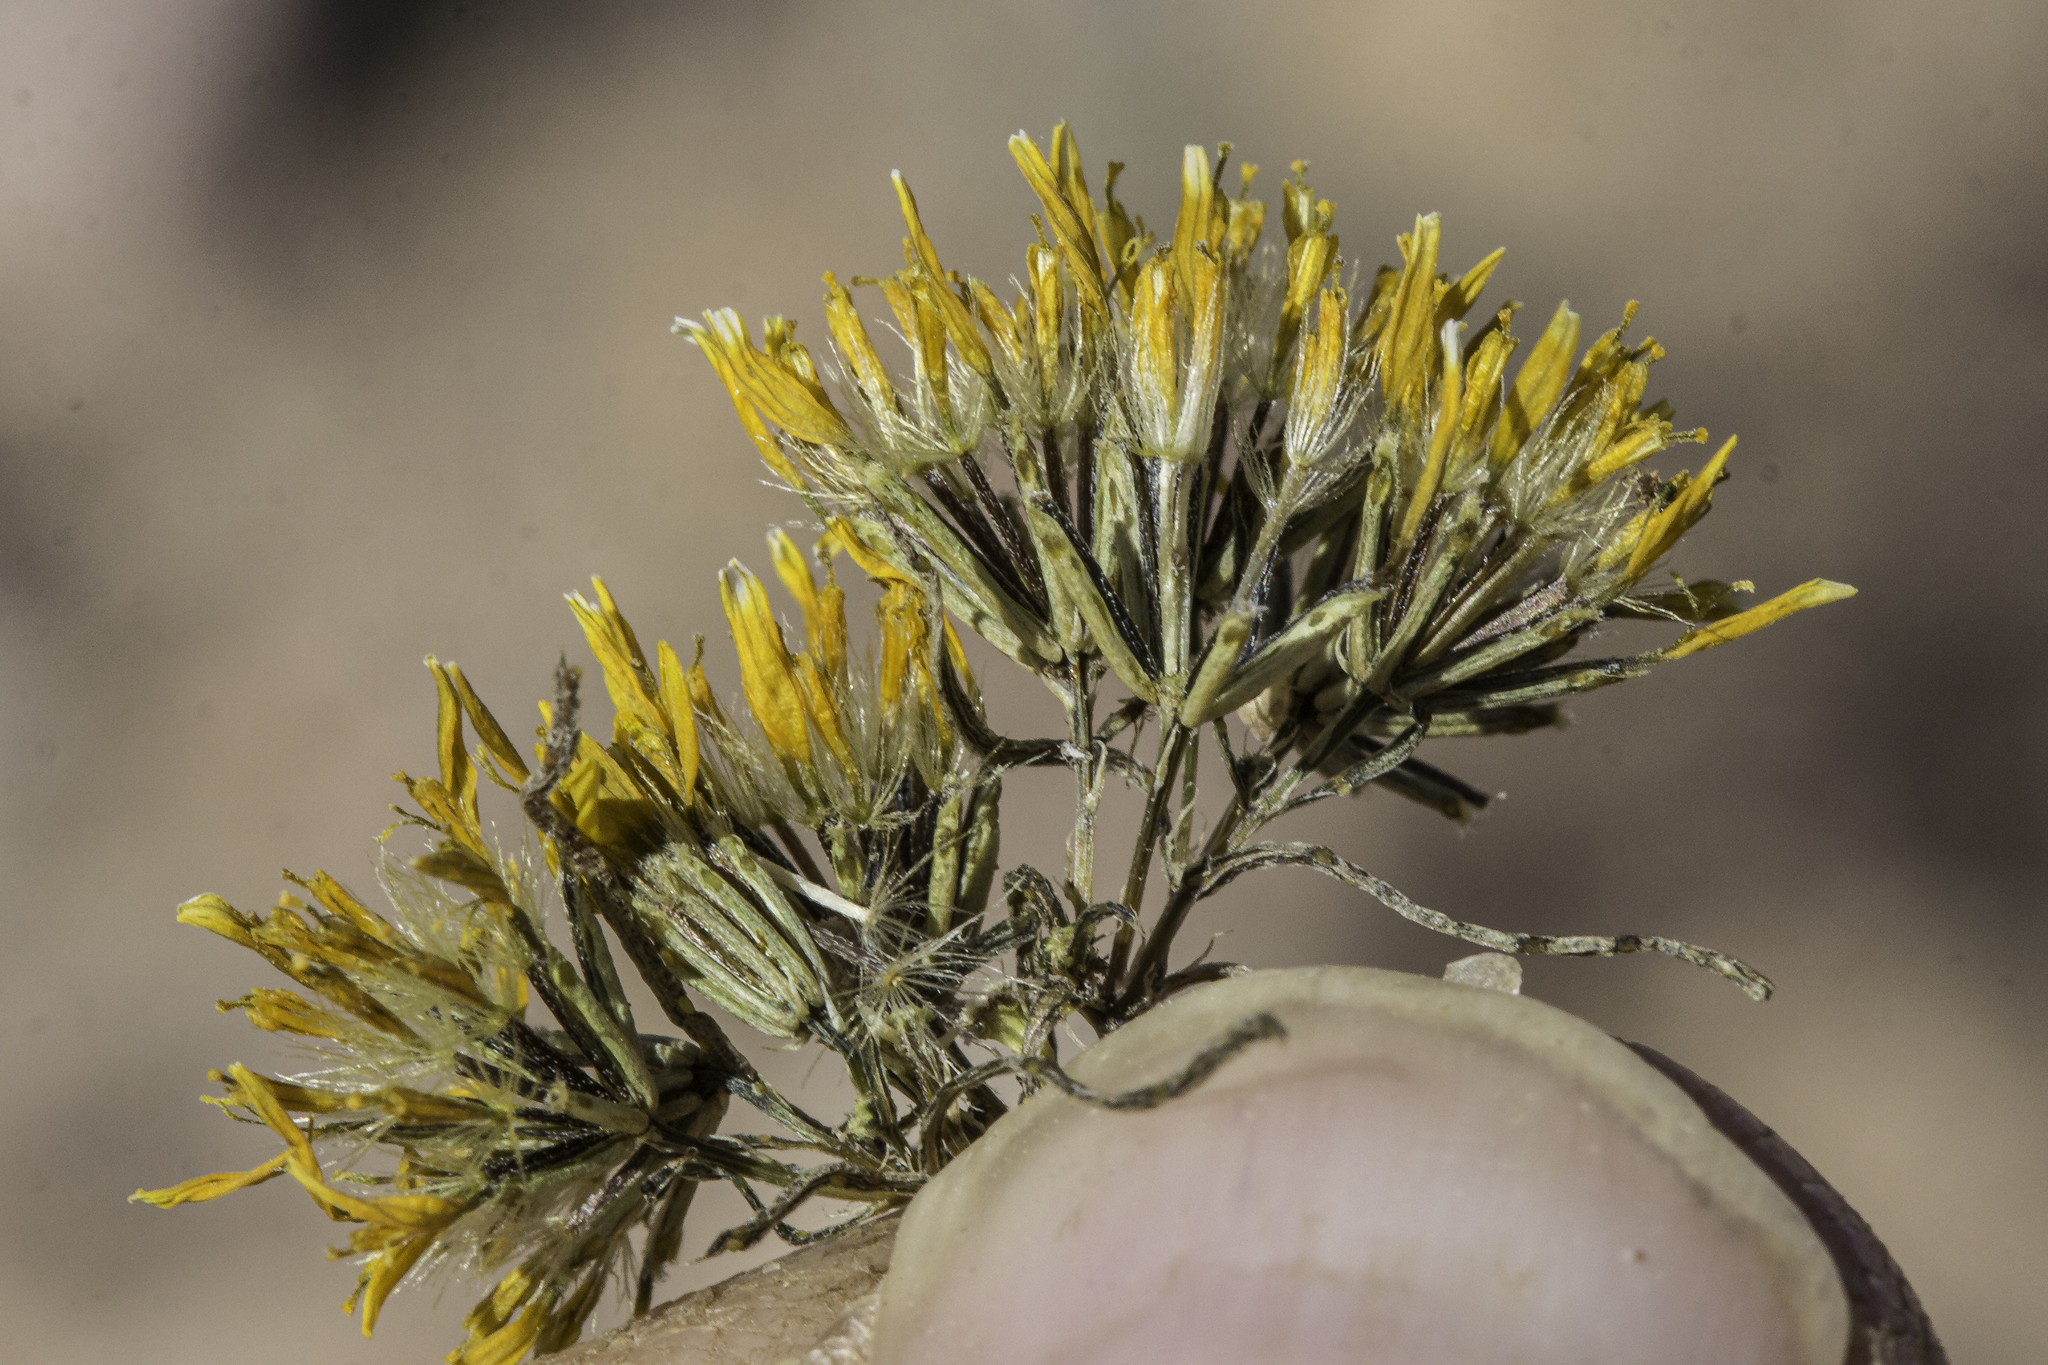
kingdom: Plantae
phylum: Tracheophyta
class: Magnoliopsida
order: Asterales
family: Asteraceae
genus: Pectis
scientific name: Pectis papposa
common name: Many-bristle chinchweed
